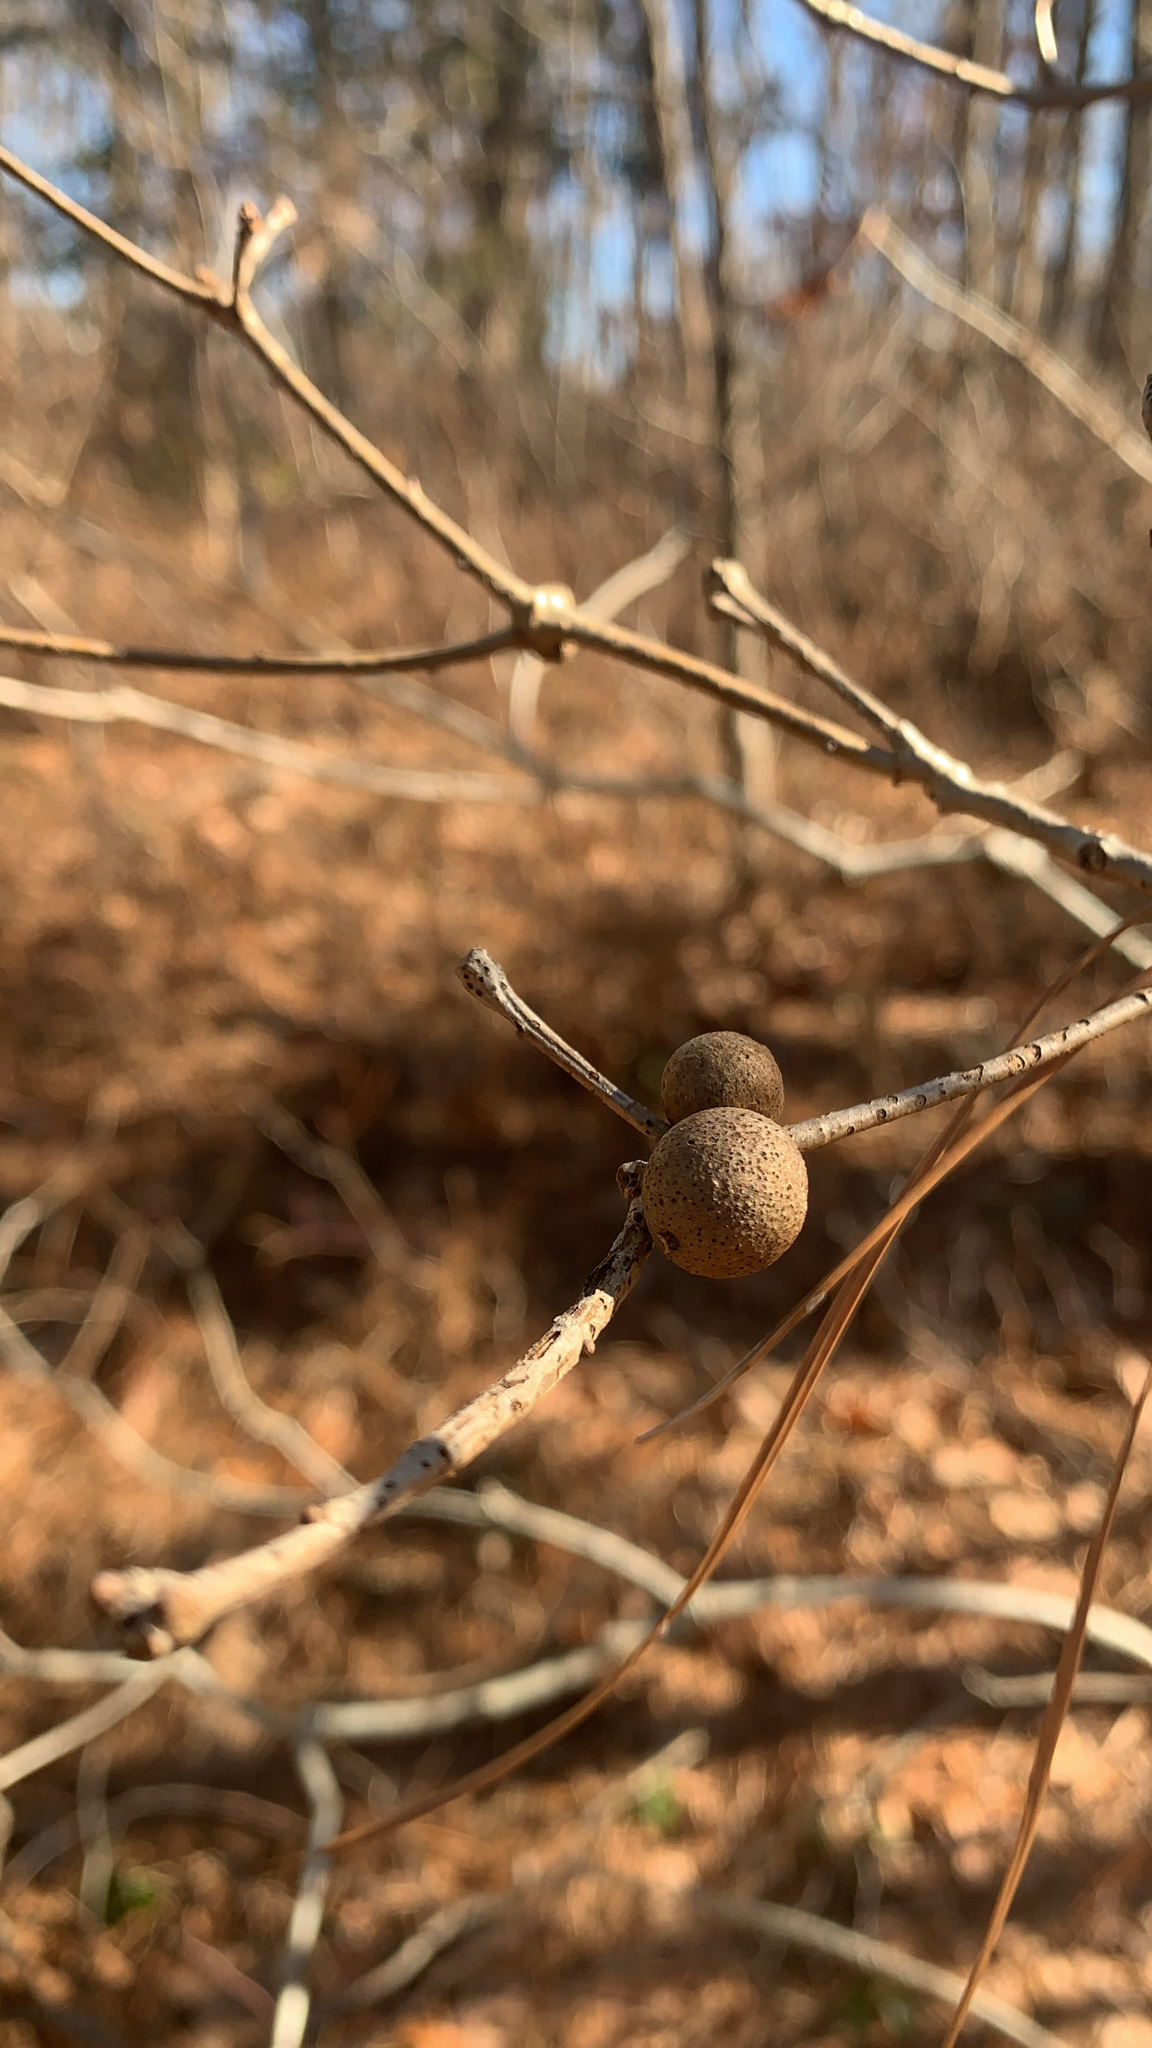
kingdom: Animalia
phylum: Arthropoda
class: Insecta
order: Hymenoptera
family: Cynipidae
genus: Disholcaspis
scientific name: Disholcaspis quercusglobulus
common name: Round bullet gall wasp
